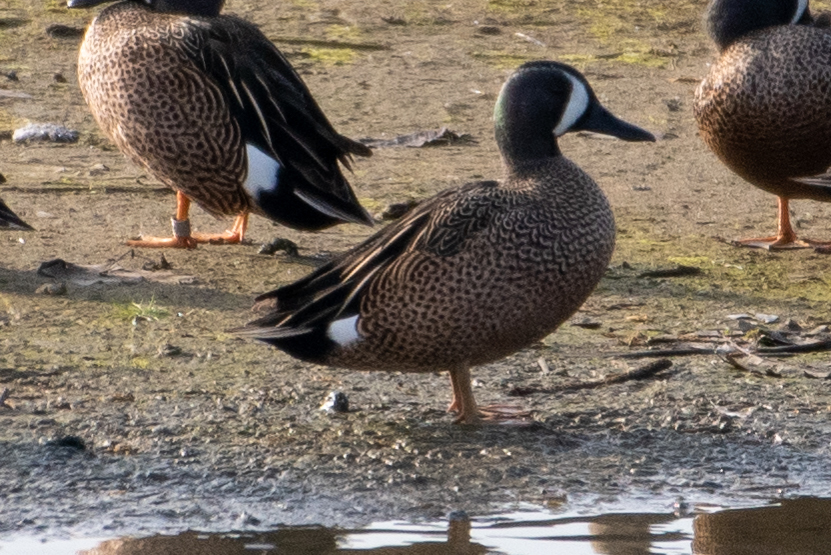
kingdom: Animalia
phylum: Chordata
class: Aves
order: Anseriformes
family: Anatidae
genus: Spatula
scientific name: Spatula discors
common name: Blue-winged teal
